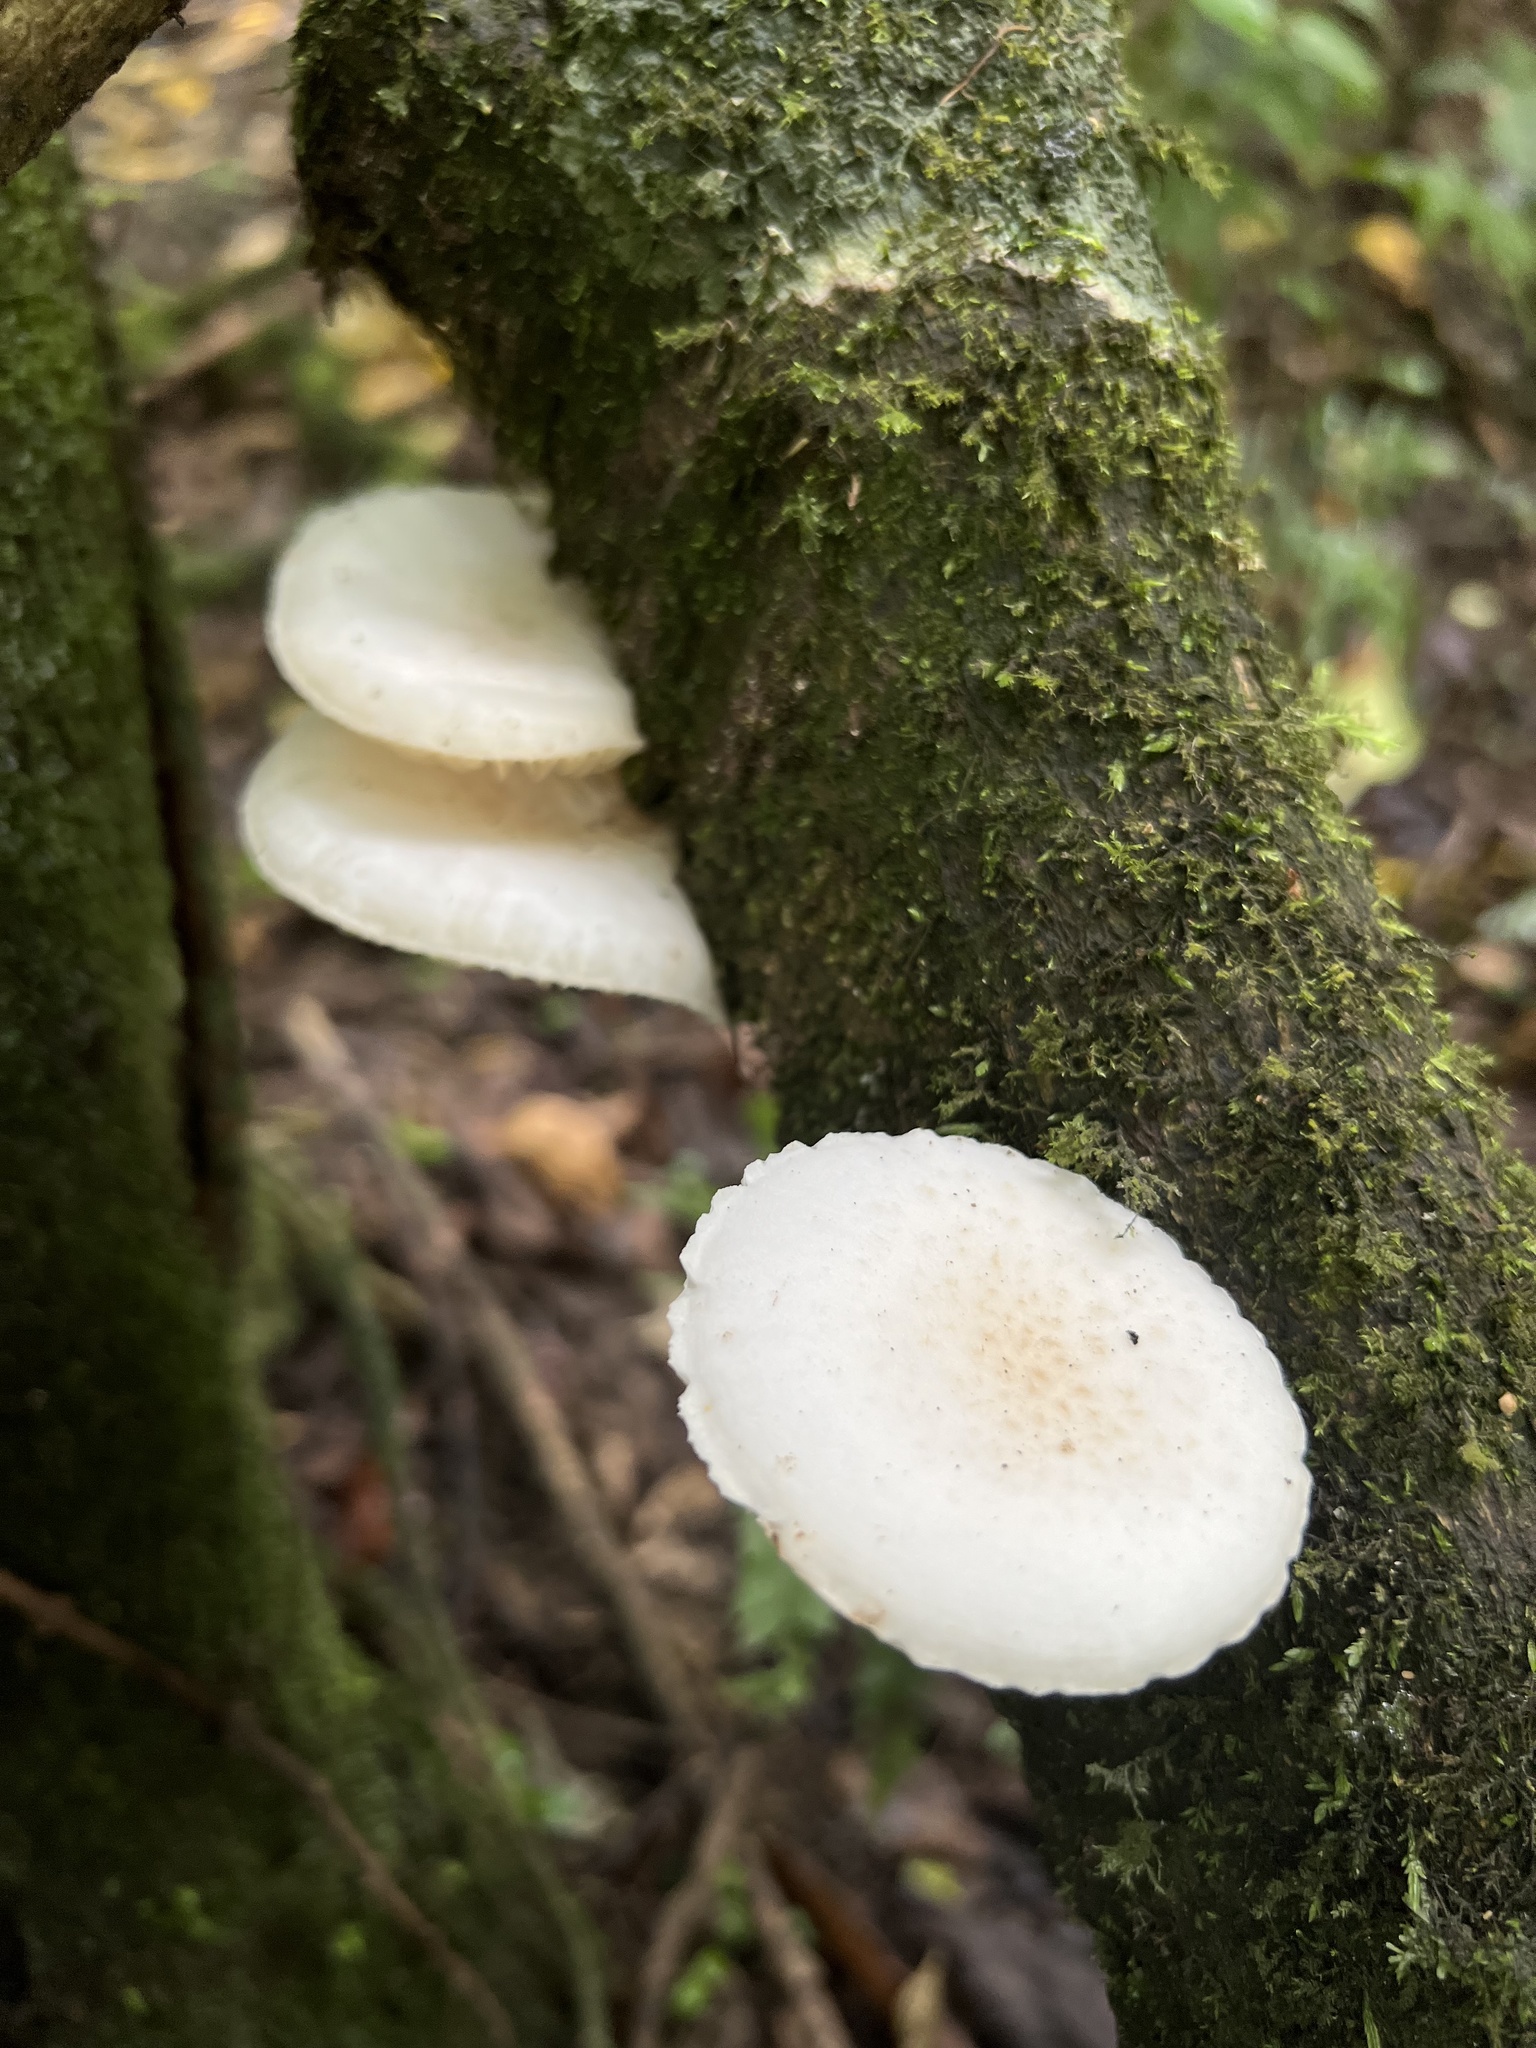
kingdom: Fungi
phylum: Basidiomycota
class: Agaricomycetes
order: Agaricales
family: Physalacriaceae
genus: Oudemansiella
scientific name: Oudemansiella australis
